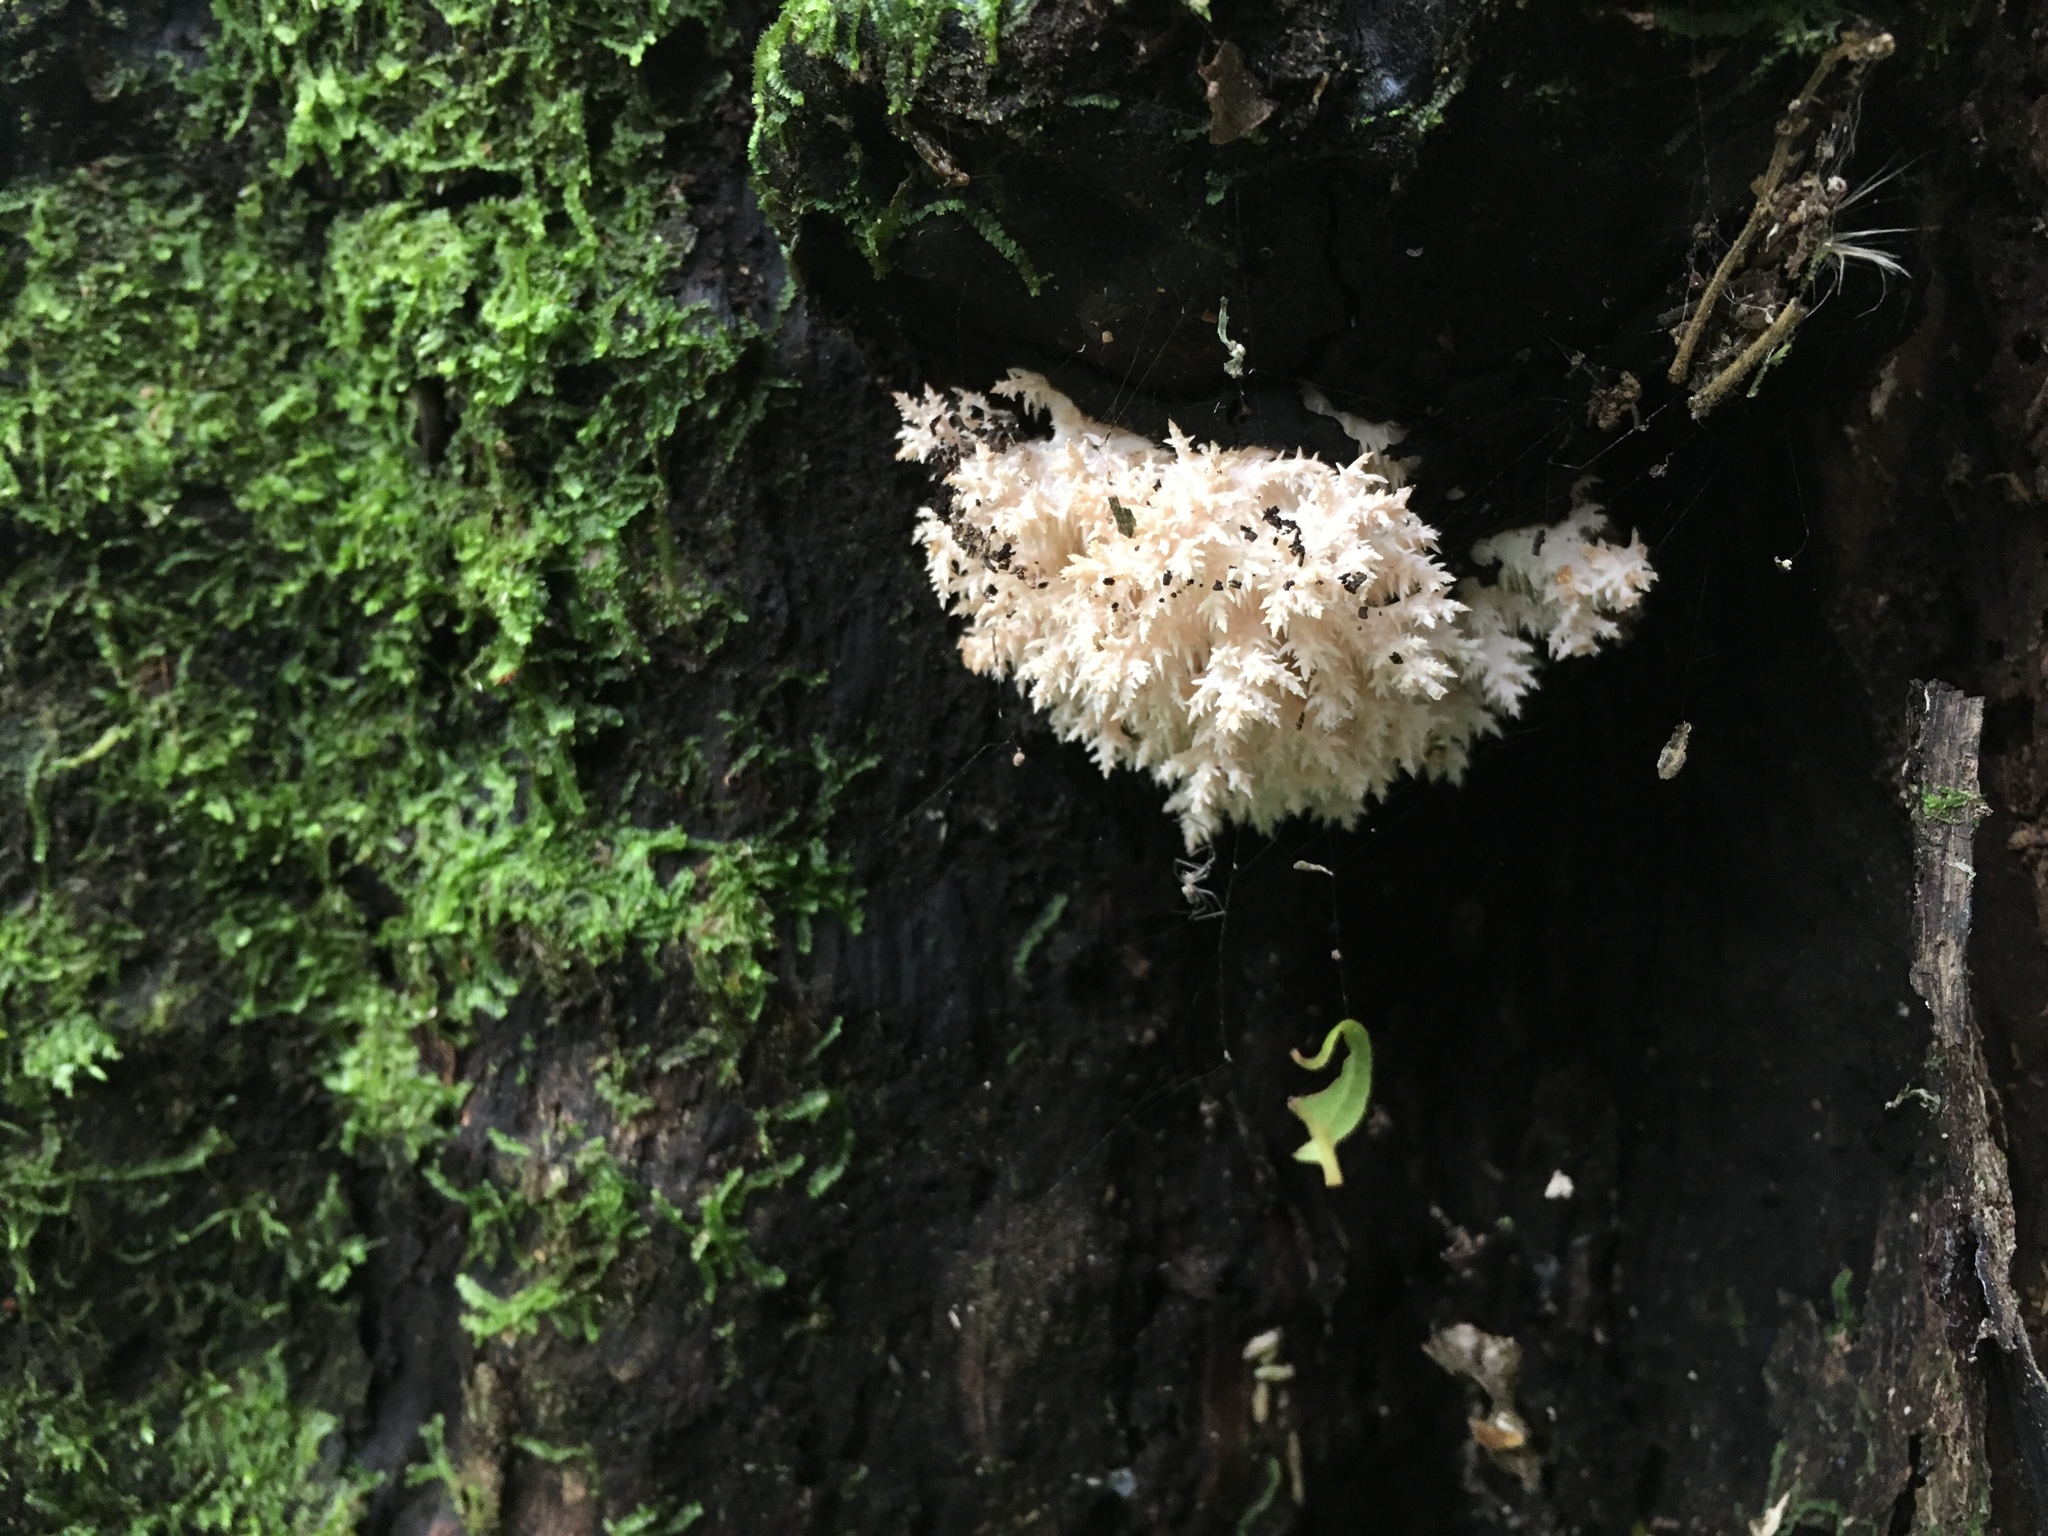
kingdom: Fungi
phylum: Basidiomycota
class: Agaricomycetes
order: Russulales
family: Hericiaceae
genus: Hericium
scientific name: Hericium novae-zealandiae
